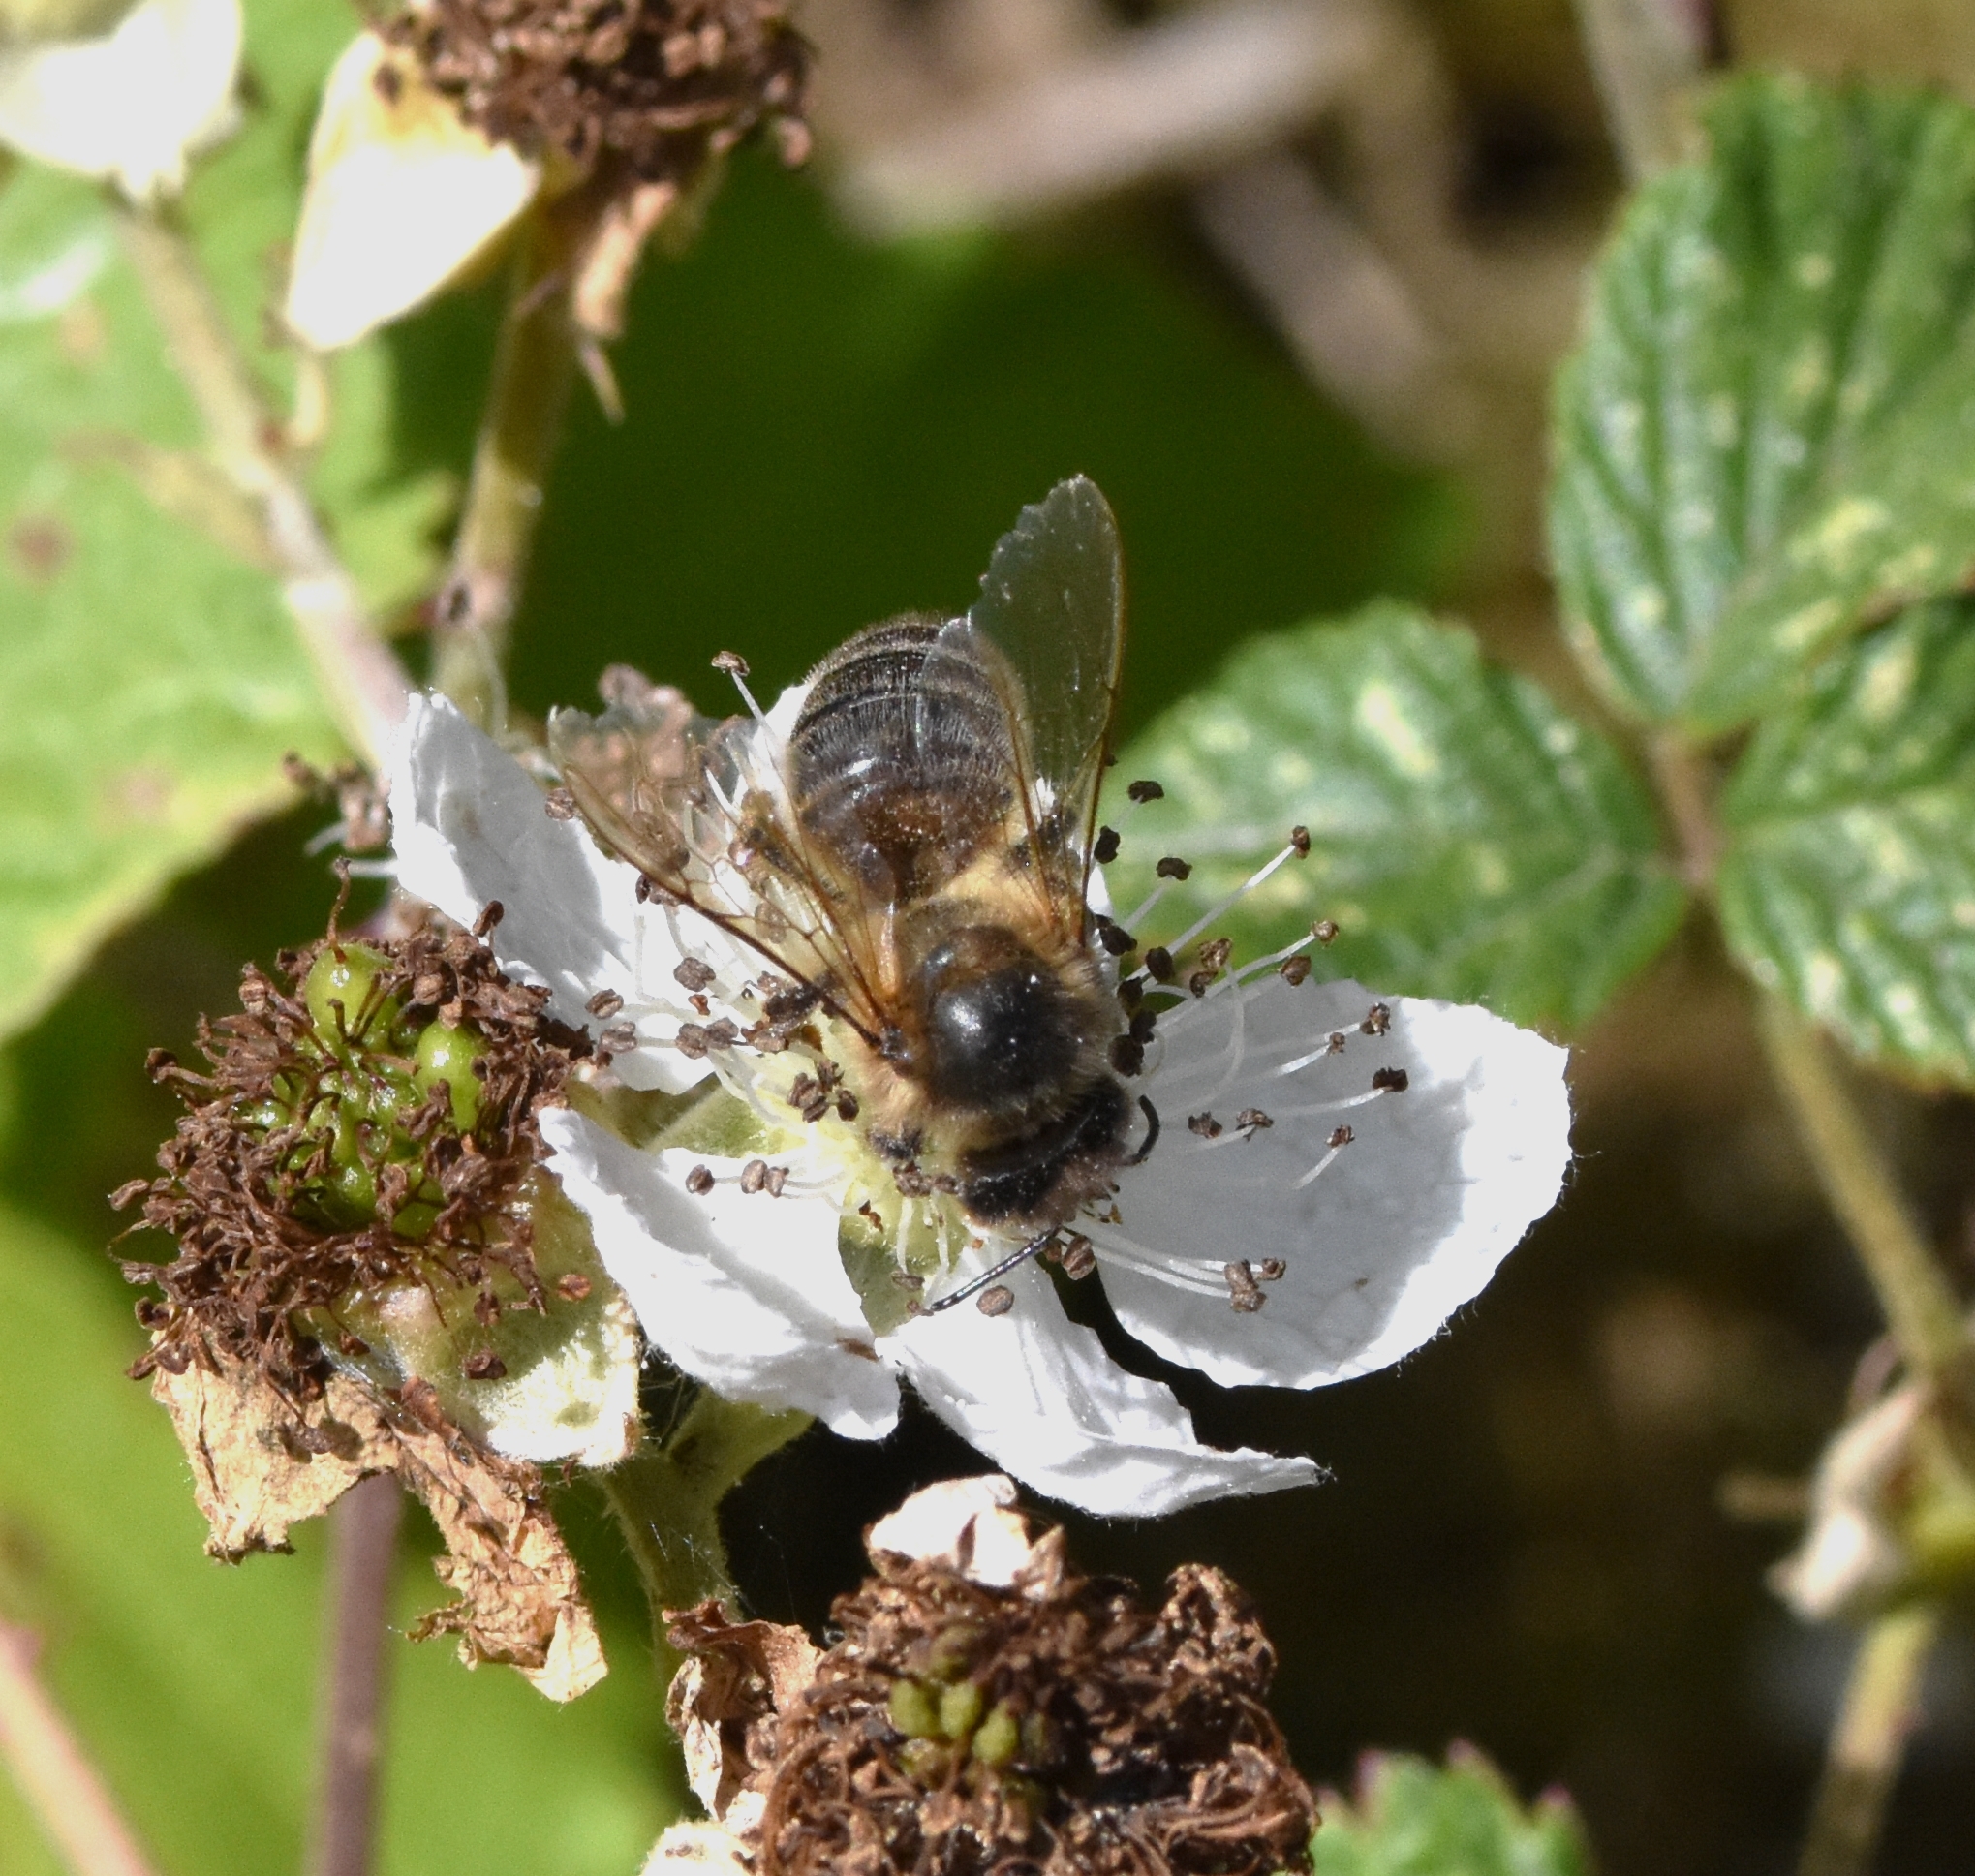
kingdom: Animalia
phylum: Arthropoda
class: Insecta
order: Hymenoptera
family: Apidae
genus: Apis
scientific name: Apis mellifera
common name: Honey bee
